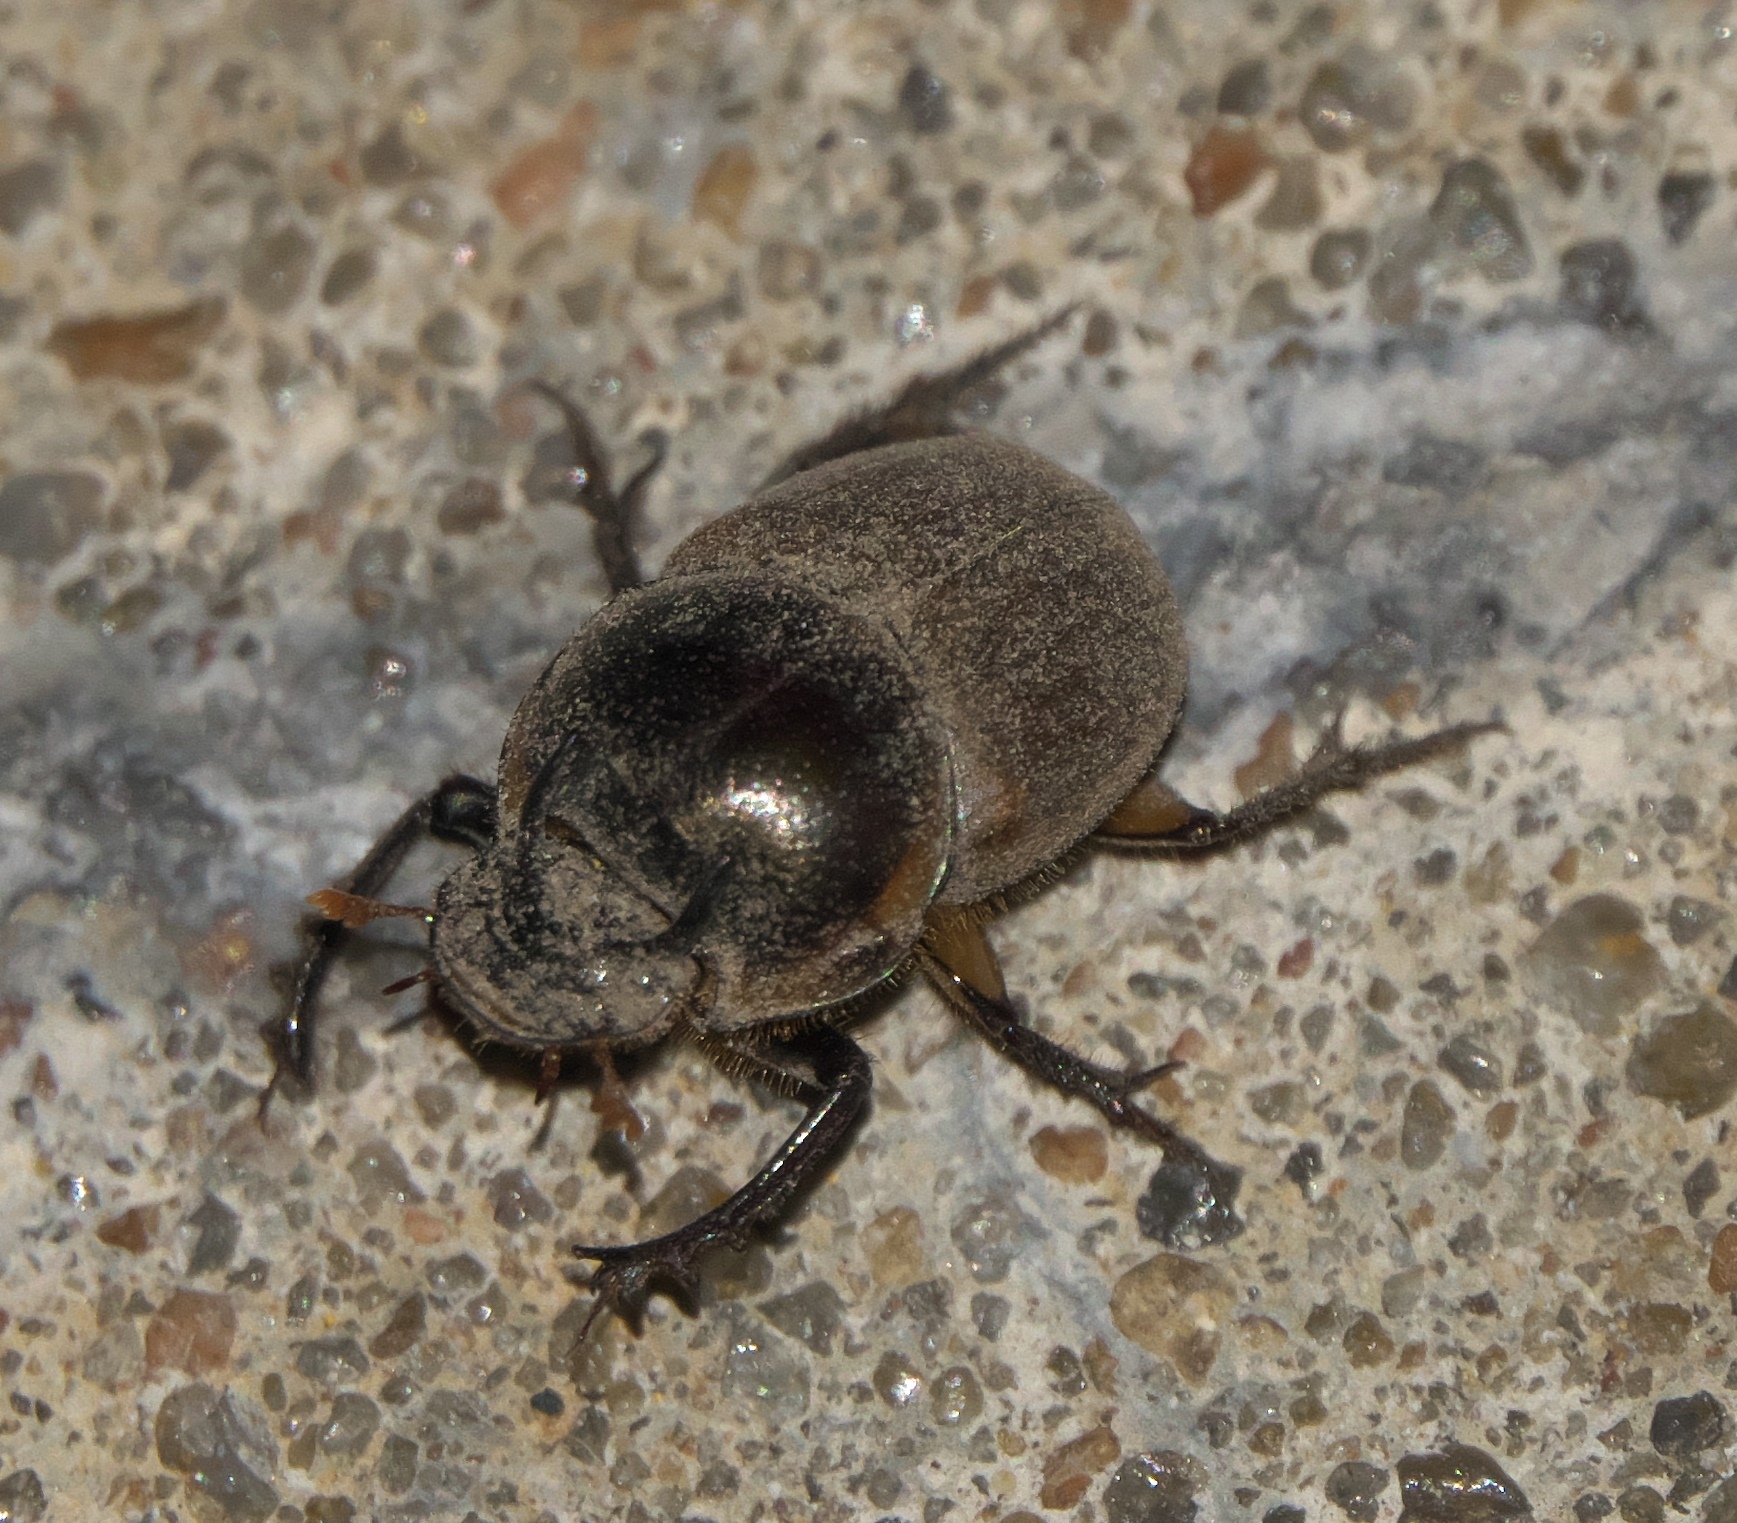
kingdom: Animalia
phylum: Arthropoda
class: Insecta
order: Coleoptera
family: Scarabaeidae
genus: Digitonthophagus
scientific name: Digitonthophagus gazella
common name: Brown dung beetle
